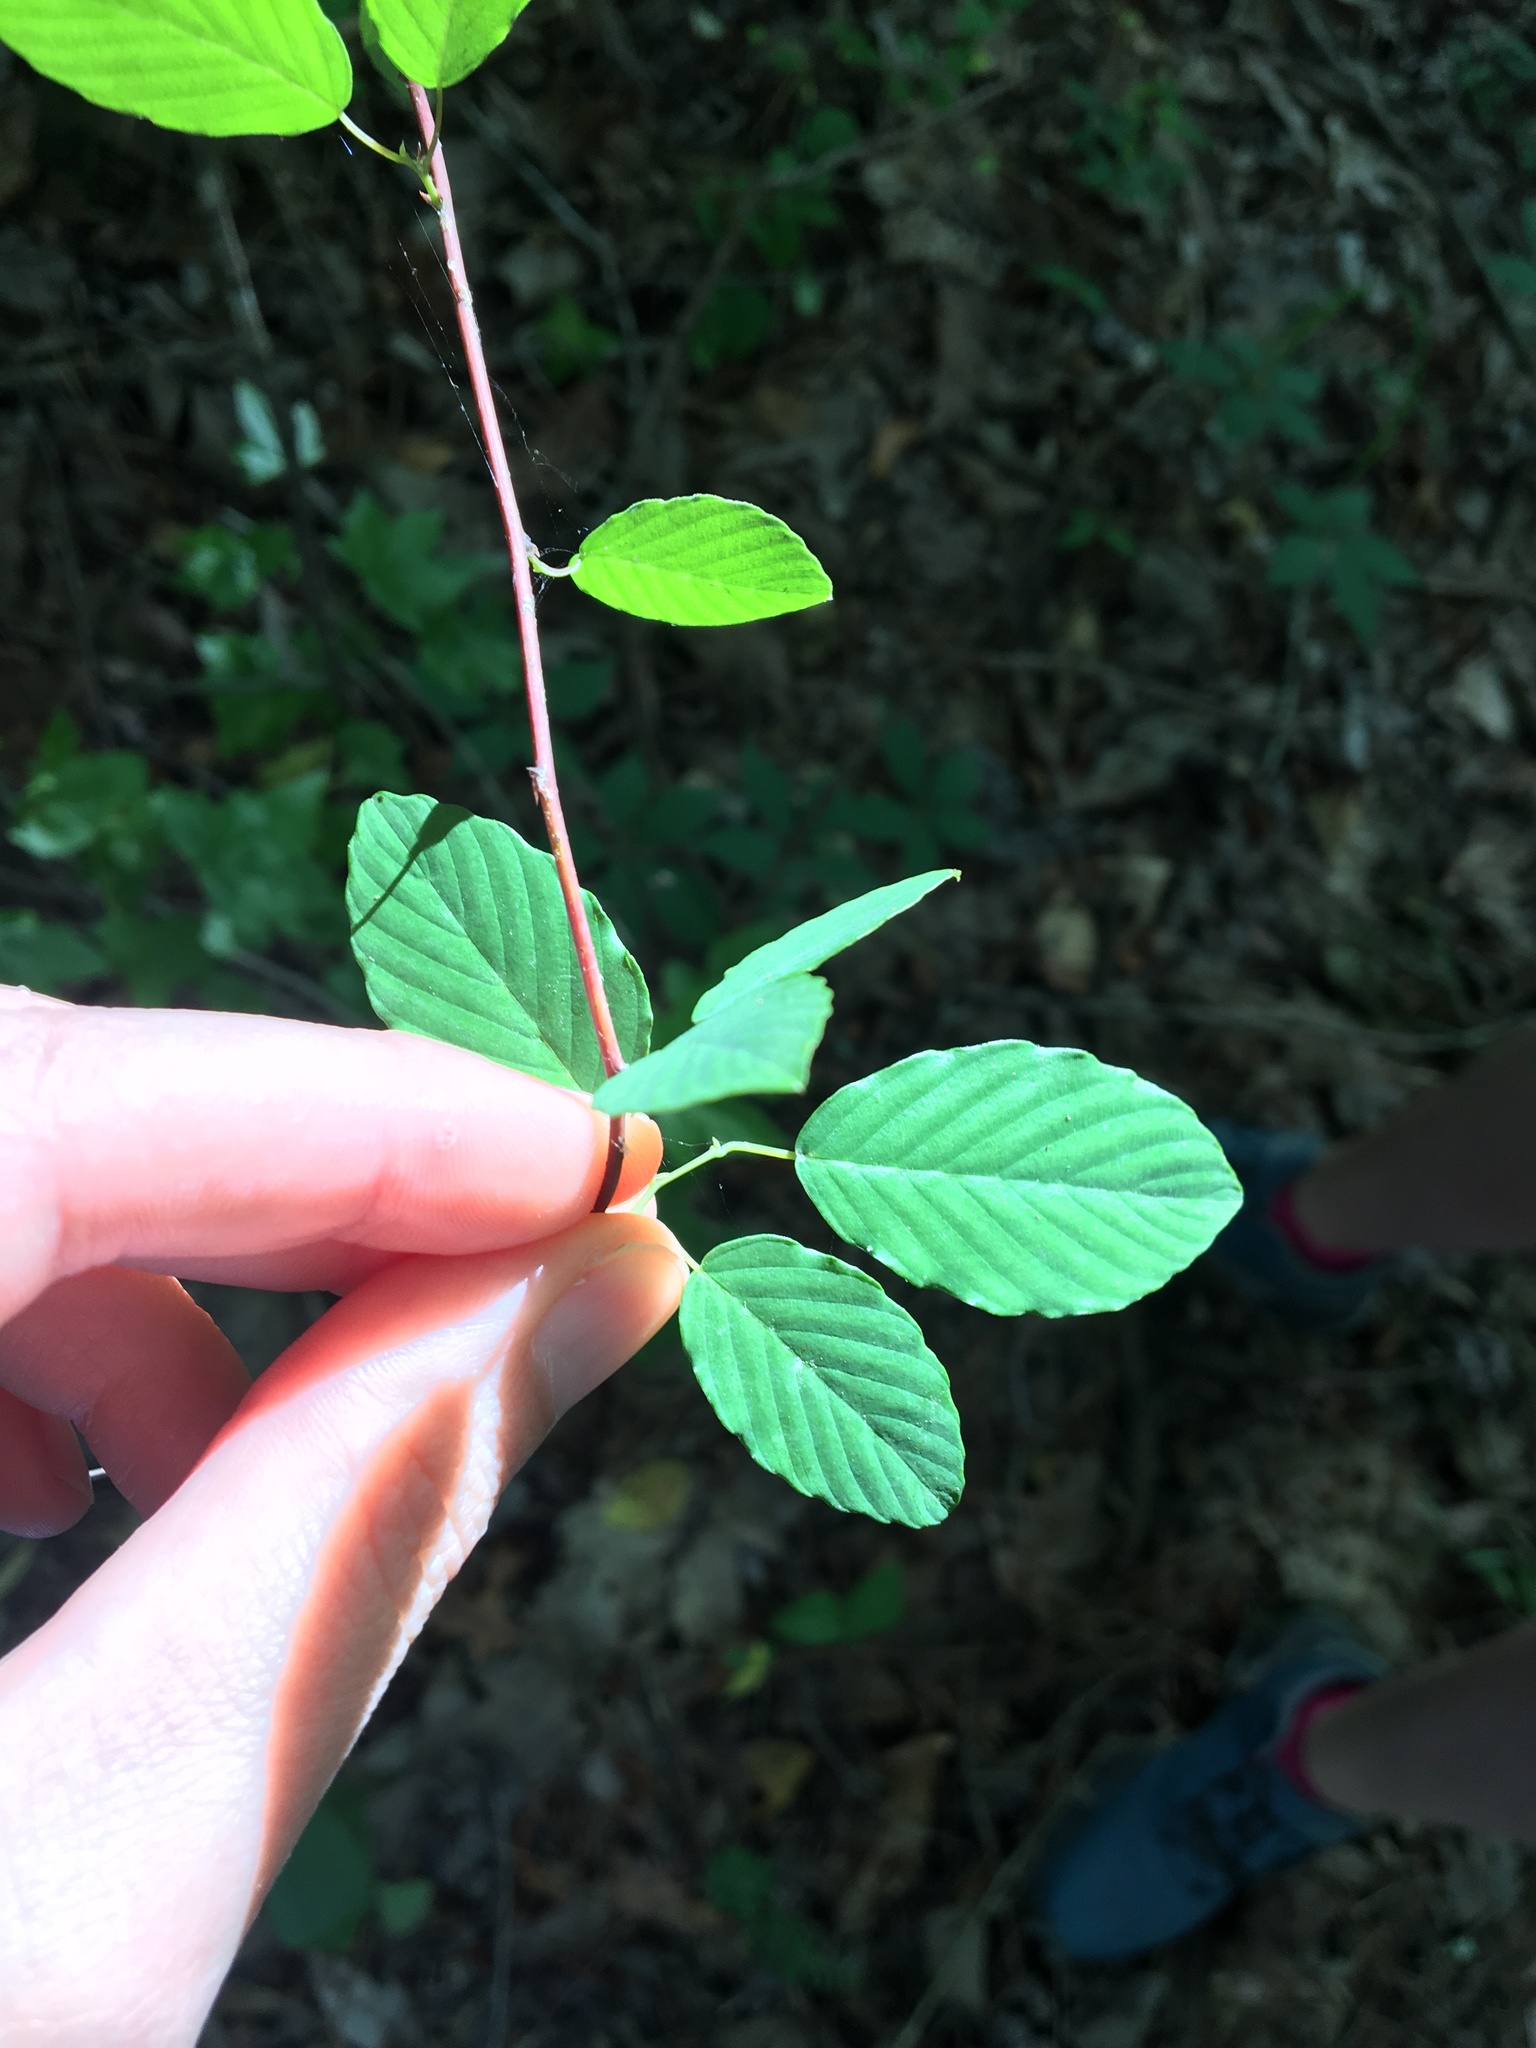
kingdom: Plantae
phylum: Tracheophyta
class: Magnoliopsida
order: Rosales
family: Rhamnaceae
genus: Berchemia
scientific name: Berchemia scandens
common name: Supplejack
